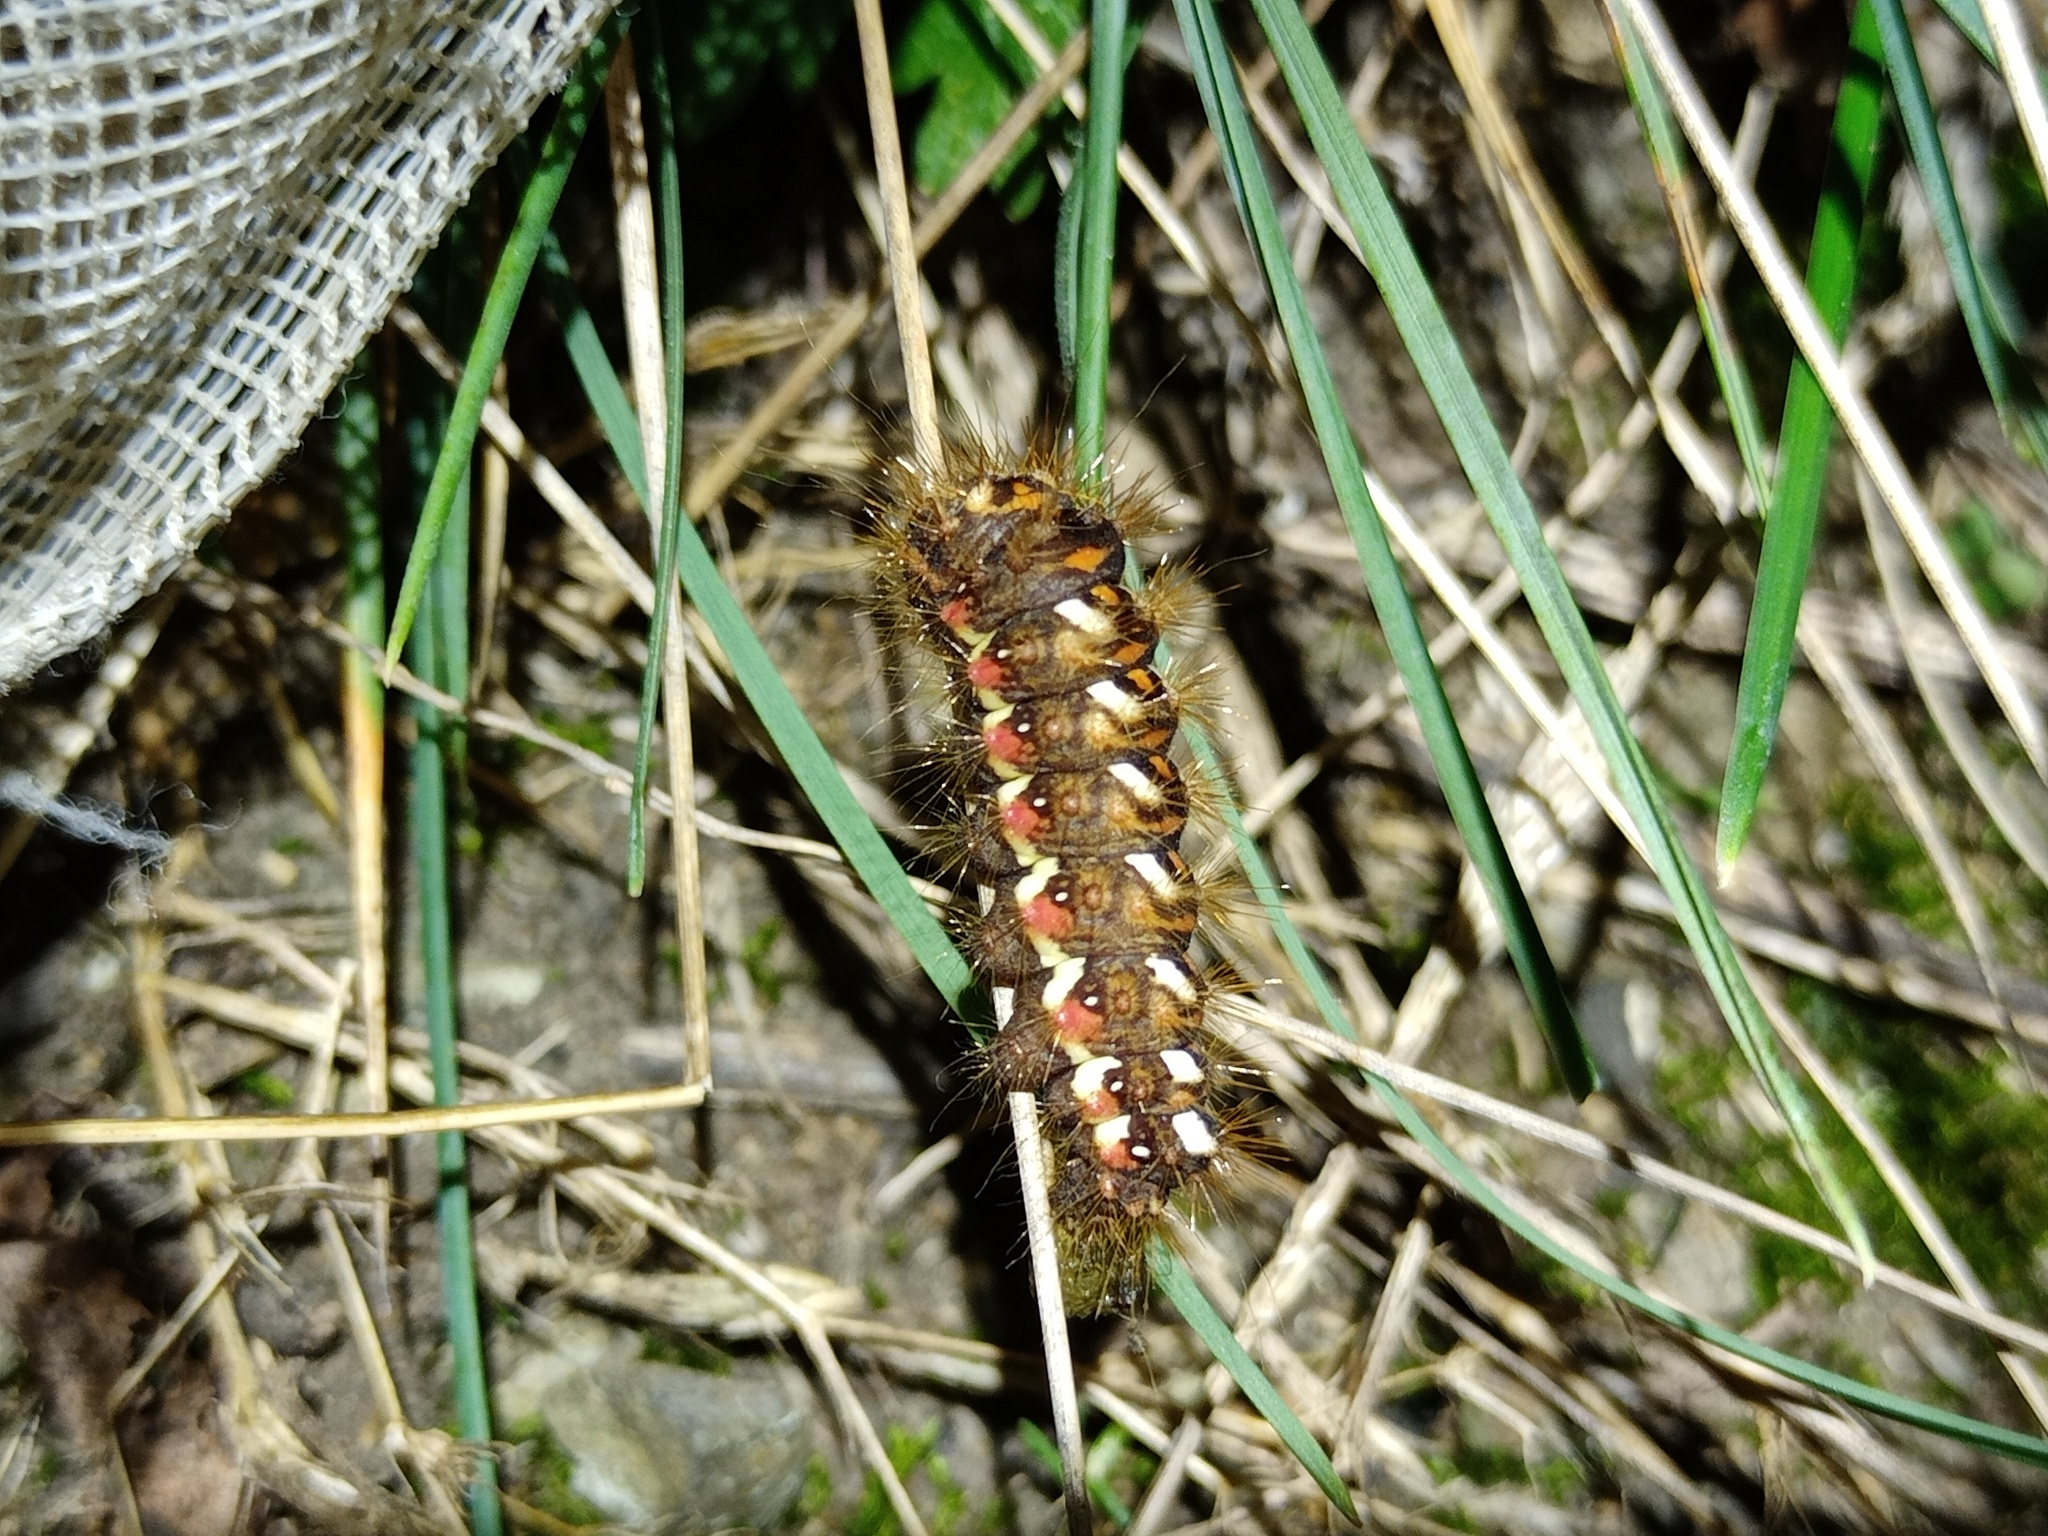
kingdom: Animalia
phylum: Arthropoda
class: Insecta
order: Lepidoptera
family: Noctuidae
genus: Acronicta
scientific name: Acronicta rumicis
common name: Knot grass
